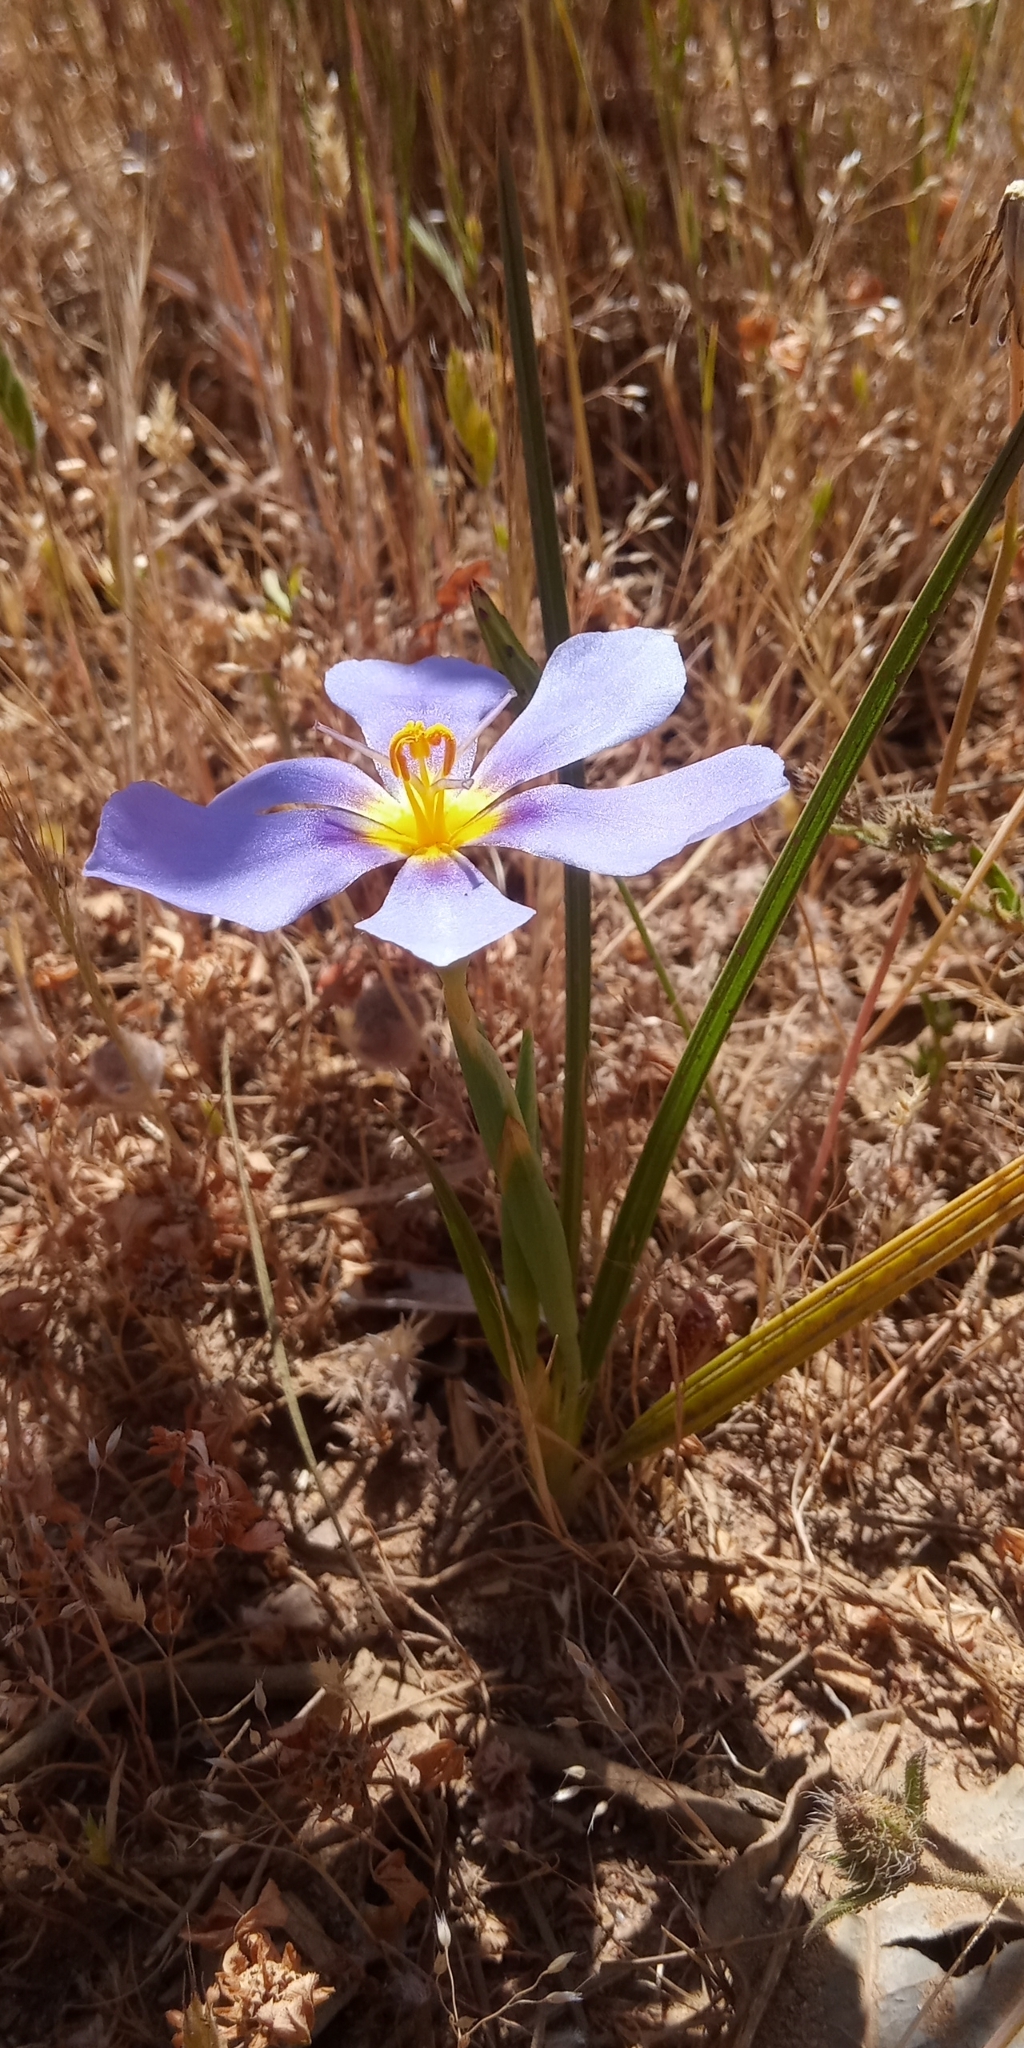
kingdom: Plantae
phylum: Tracheophyta
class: Liliopsida
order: Asparagales
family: Iridaceae
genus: Calydorea
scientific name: Calydorea xiphioides
